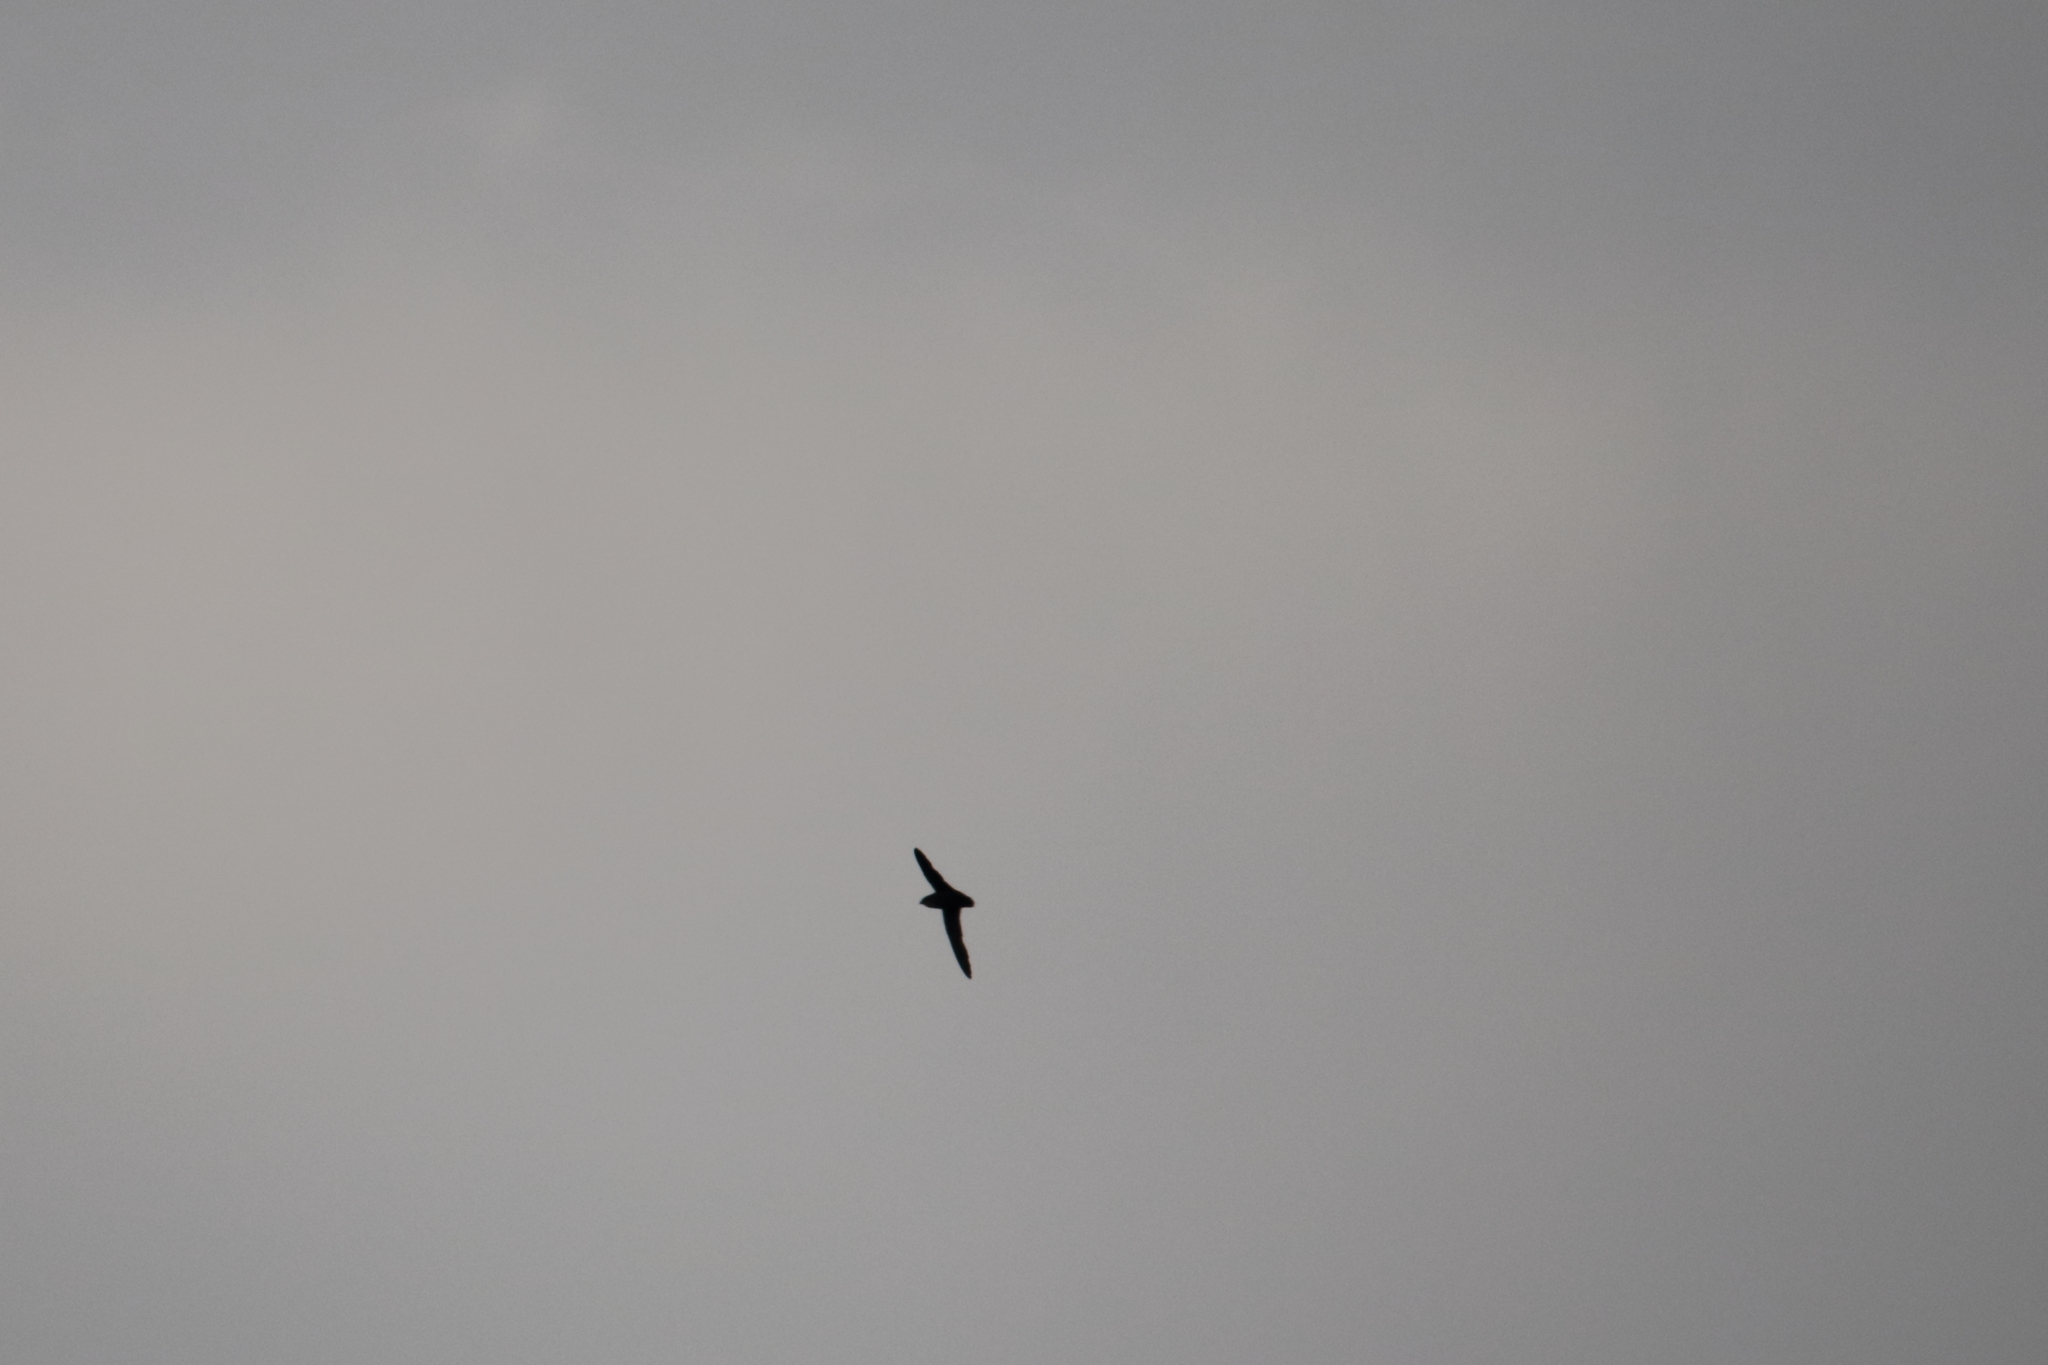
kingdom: Animalia
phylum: Chordata
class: Aves
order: Apodiformes
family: Apodidae
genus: Chaetura
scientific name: Chaetura pelagica
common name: Chimney swift
